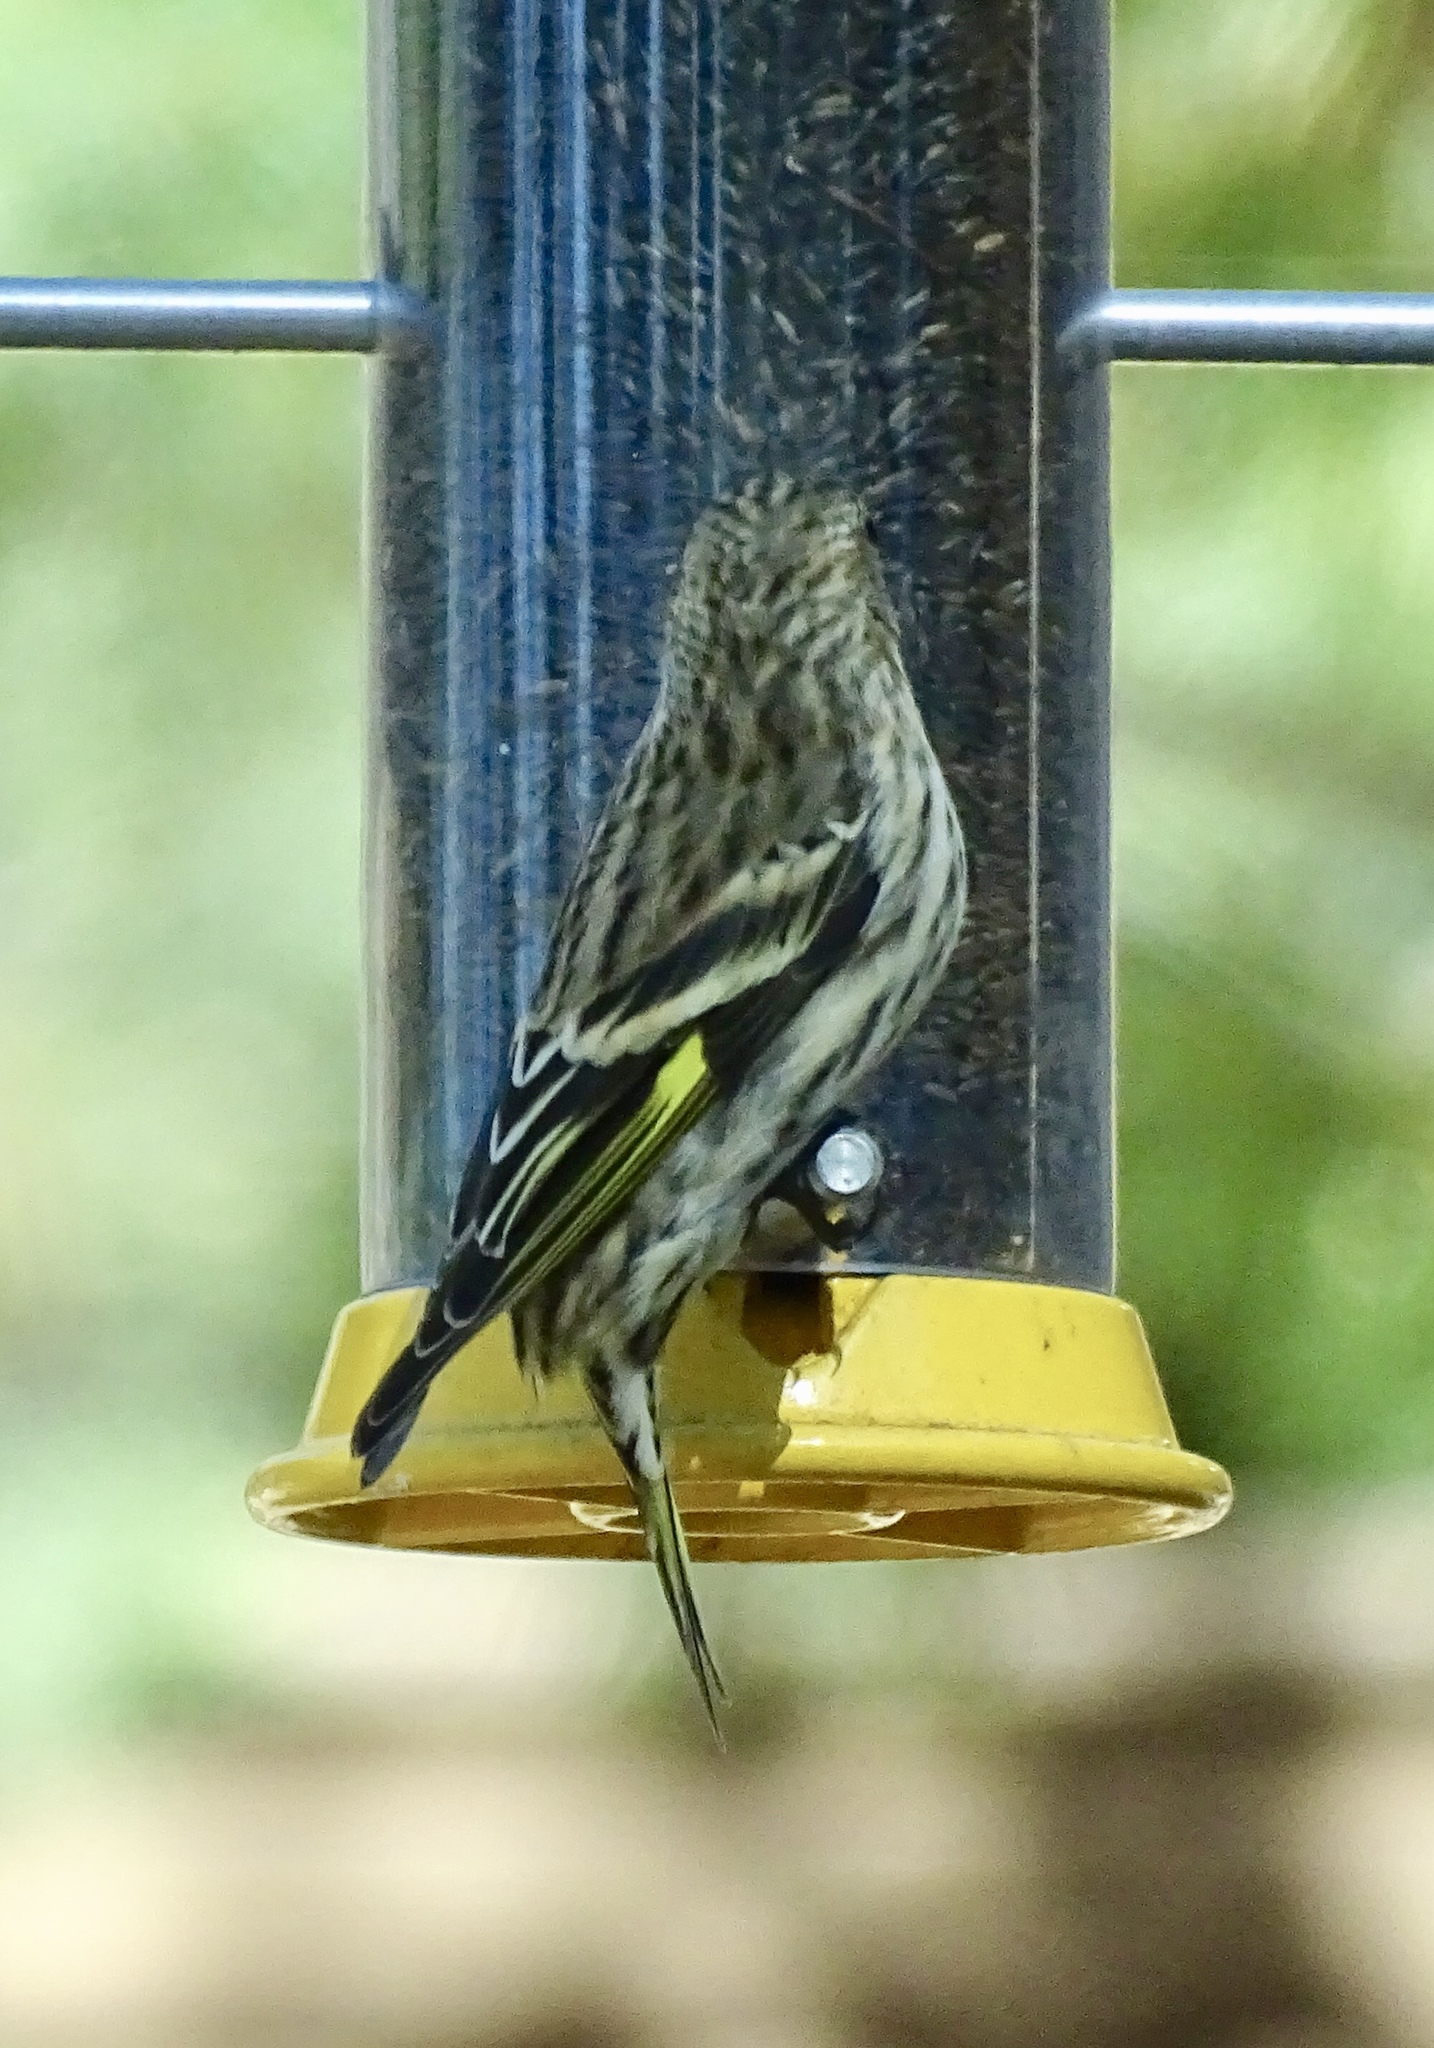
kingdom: Animalia
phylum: Chordata
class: Aves
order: Passeriformes
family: Fringillidae
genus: Spinus
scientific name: Spinus pinus
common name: Pine siskin
